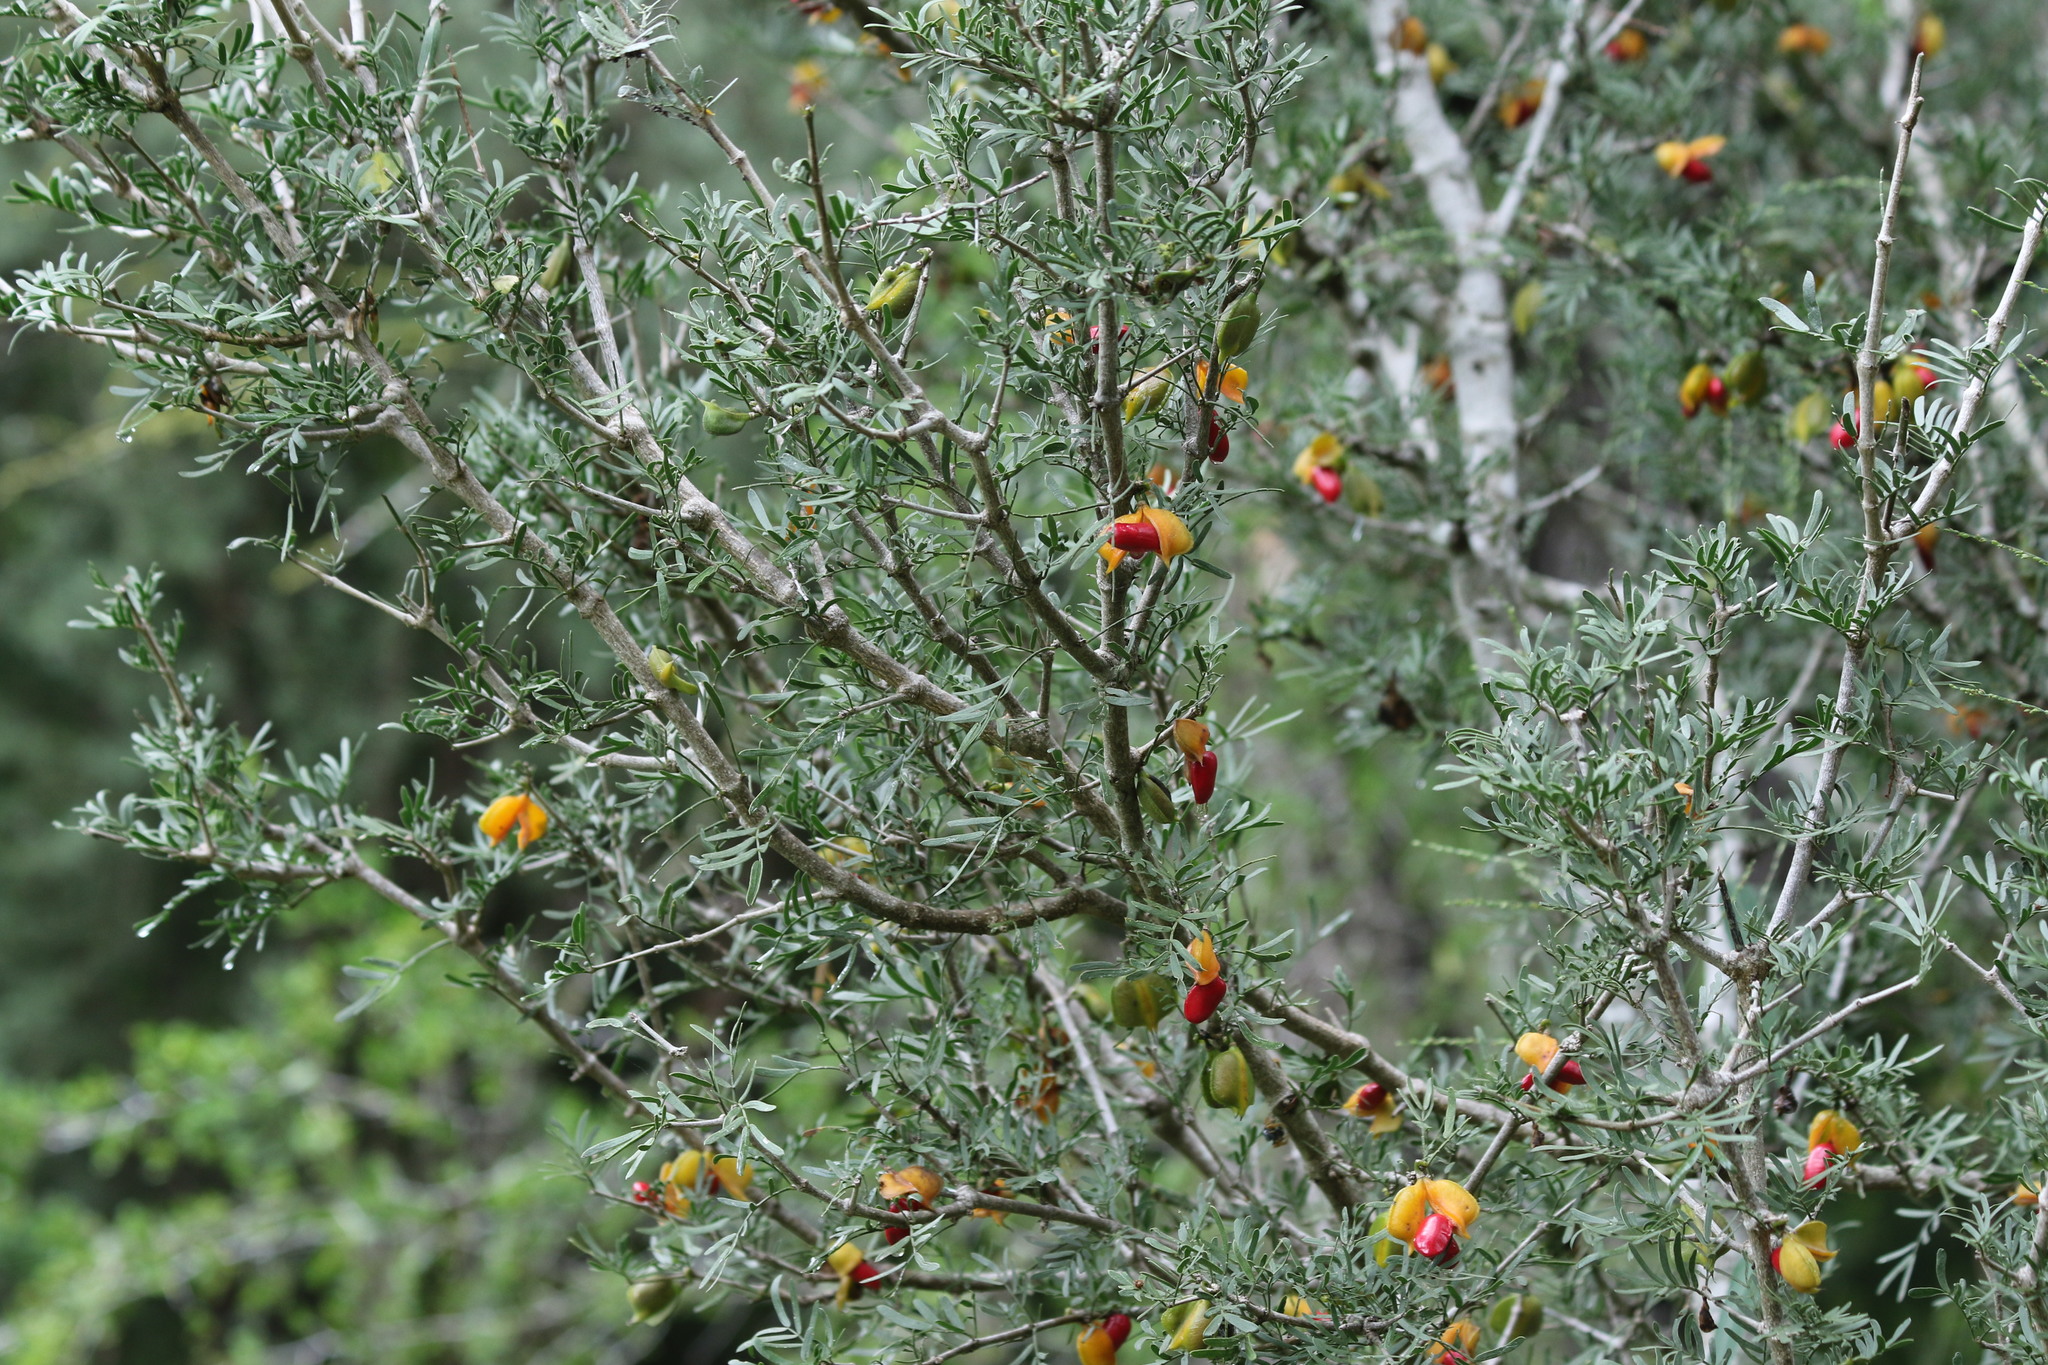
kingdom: Plantae
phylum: Tracheophyta
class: Magnoliopsida
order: Zygophyllales
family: Zygophyllaceae
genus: Porlieria
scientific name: Porlieria angustifolia
